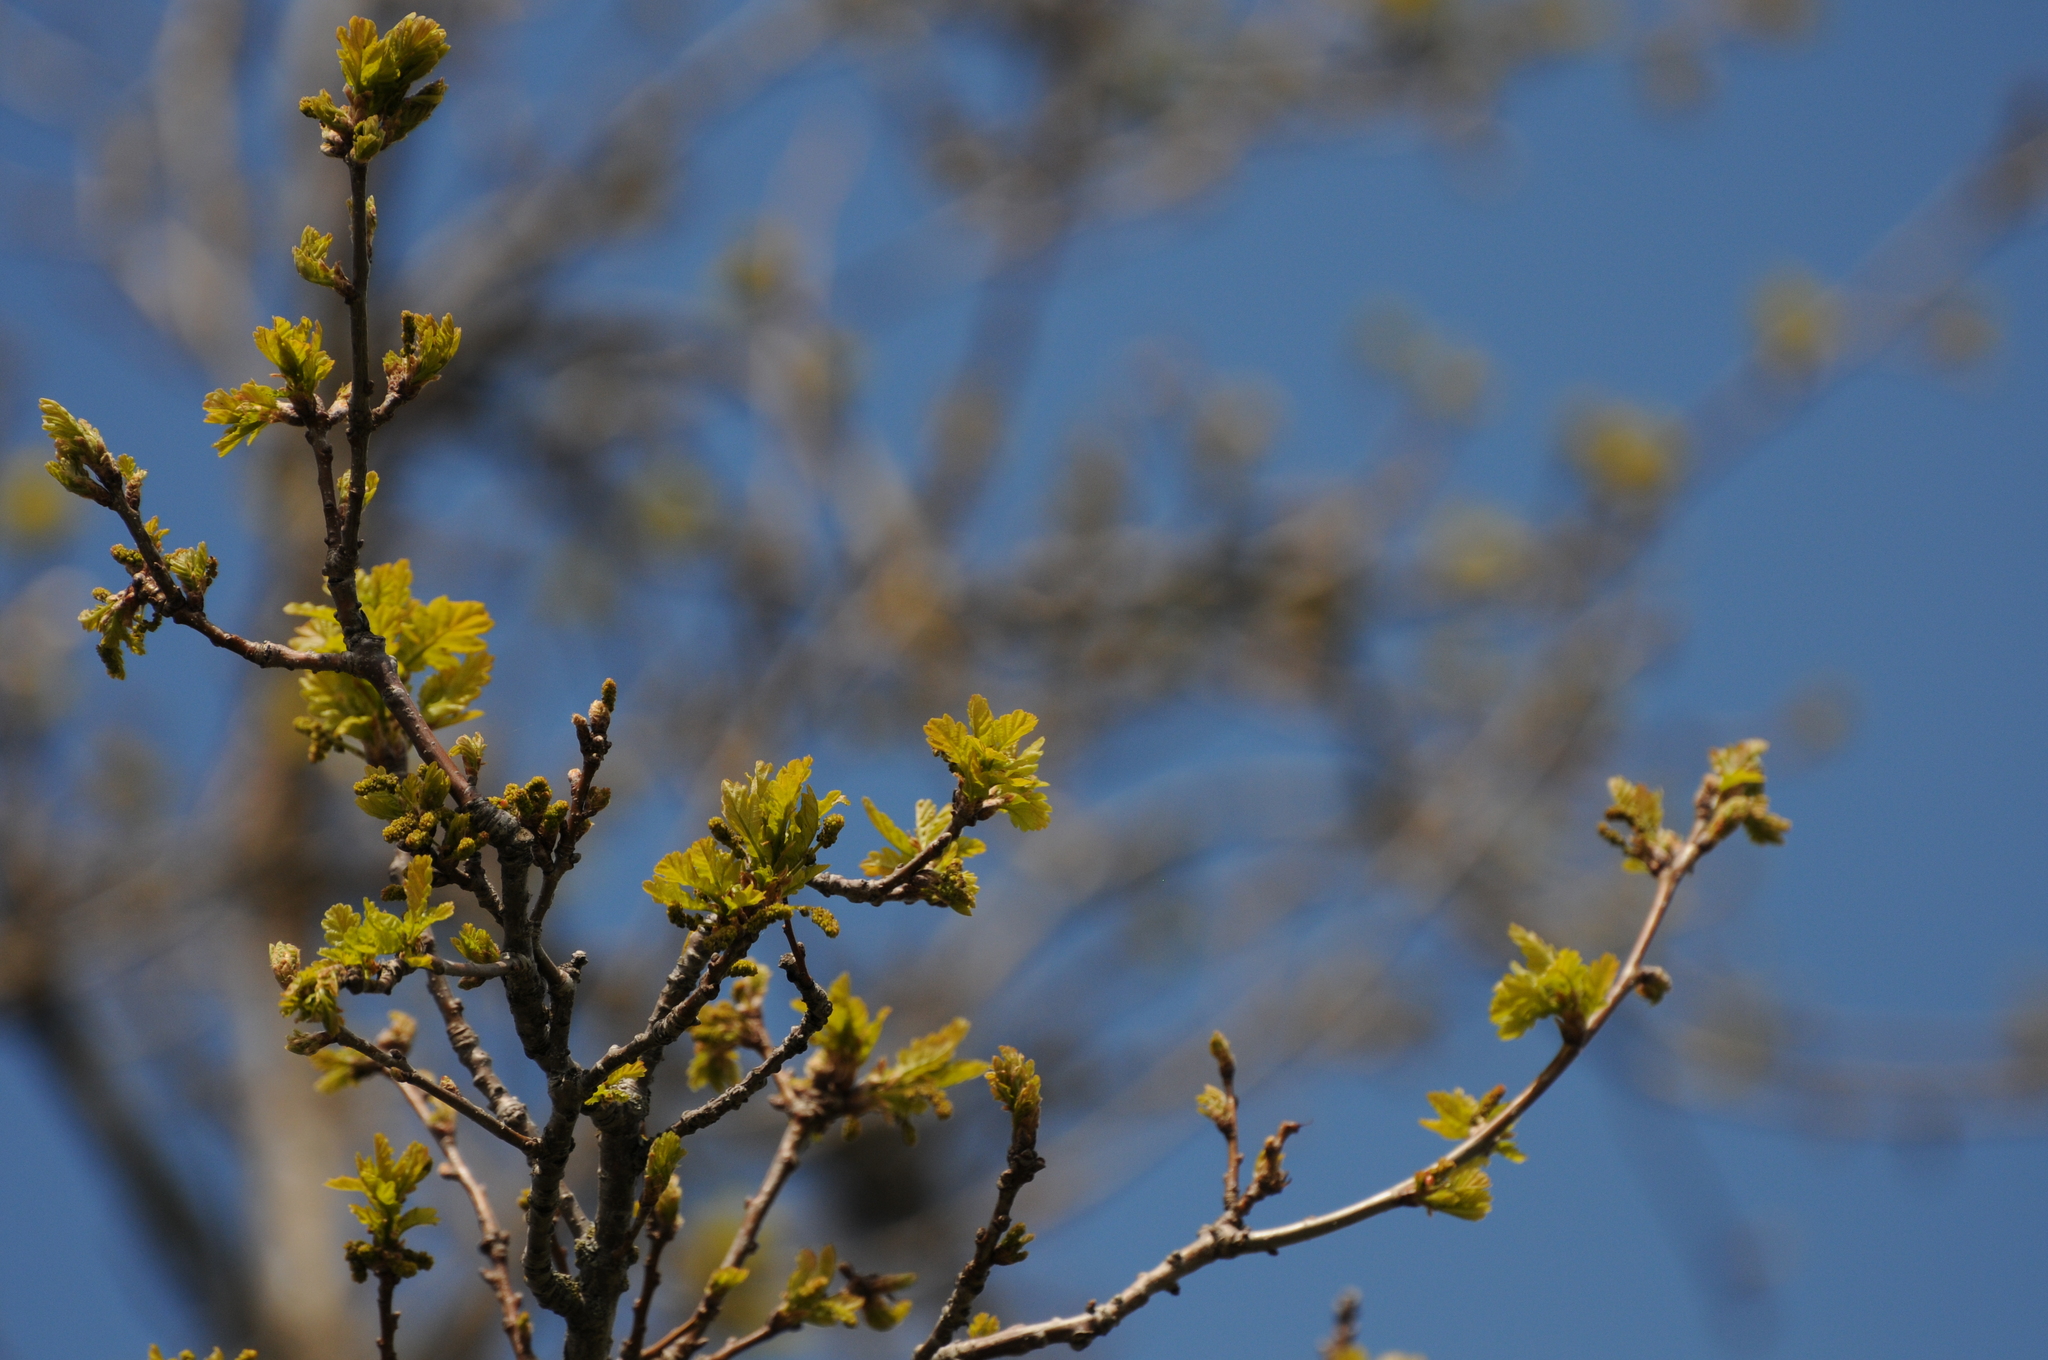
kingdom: Plantae
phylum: Tracheophyta
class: Magnoliopsida
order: Fagales
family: Fagaceae
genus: Quercus
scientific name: Quercus robur
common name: Pedunculate oak
